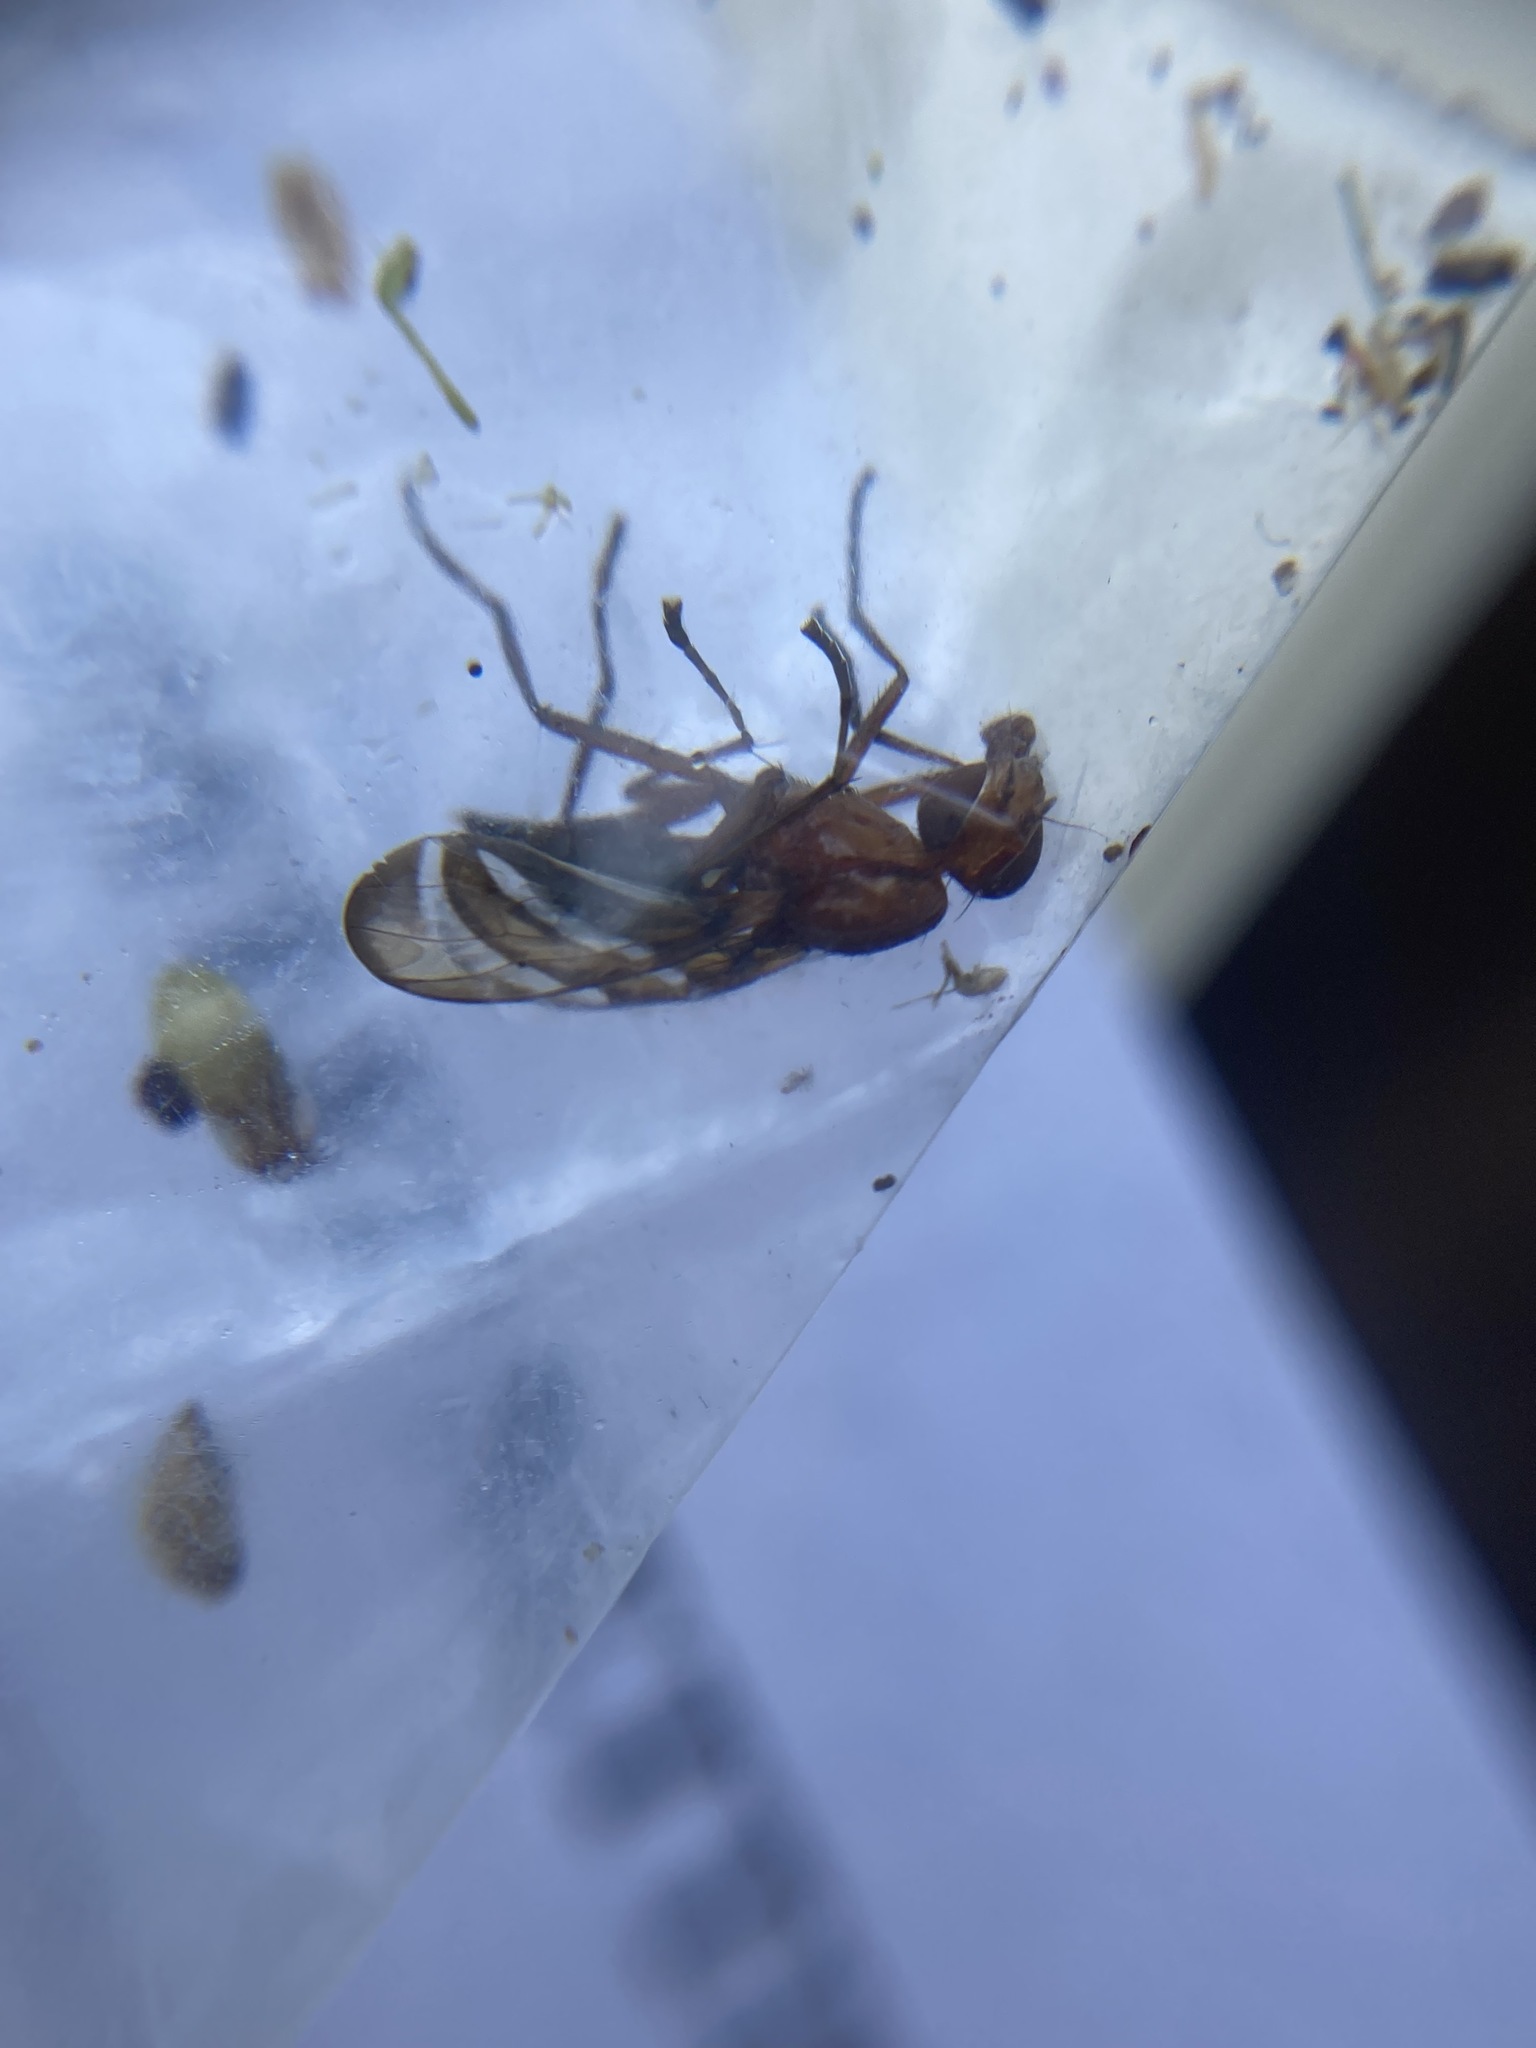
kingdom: Animalia
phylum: Arthropoda
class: Insecta
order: Diptera
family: Ulidiidae
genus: Tritoxa
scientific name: Tritoxa incurva
